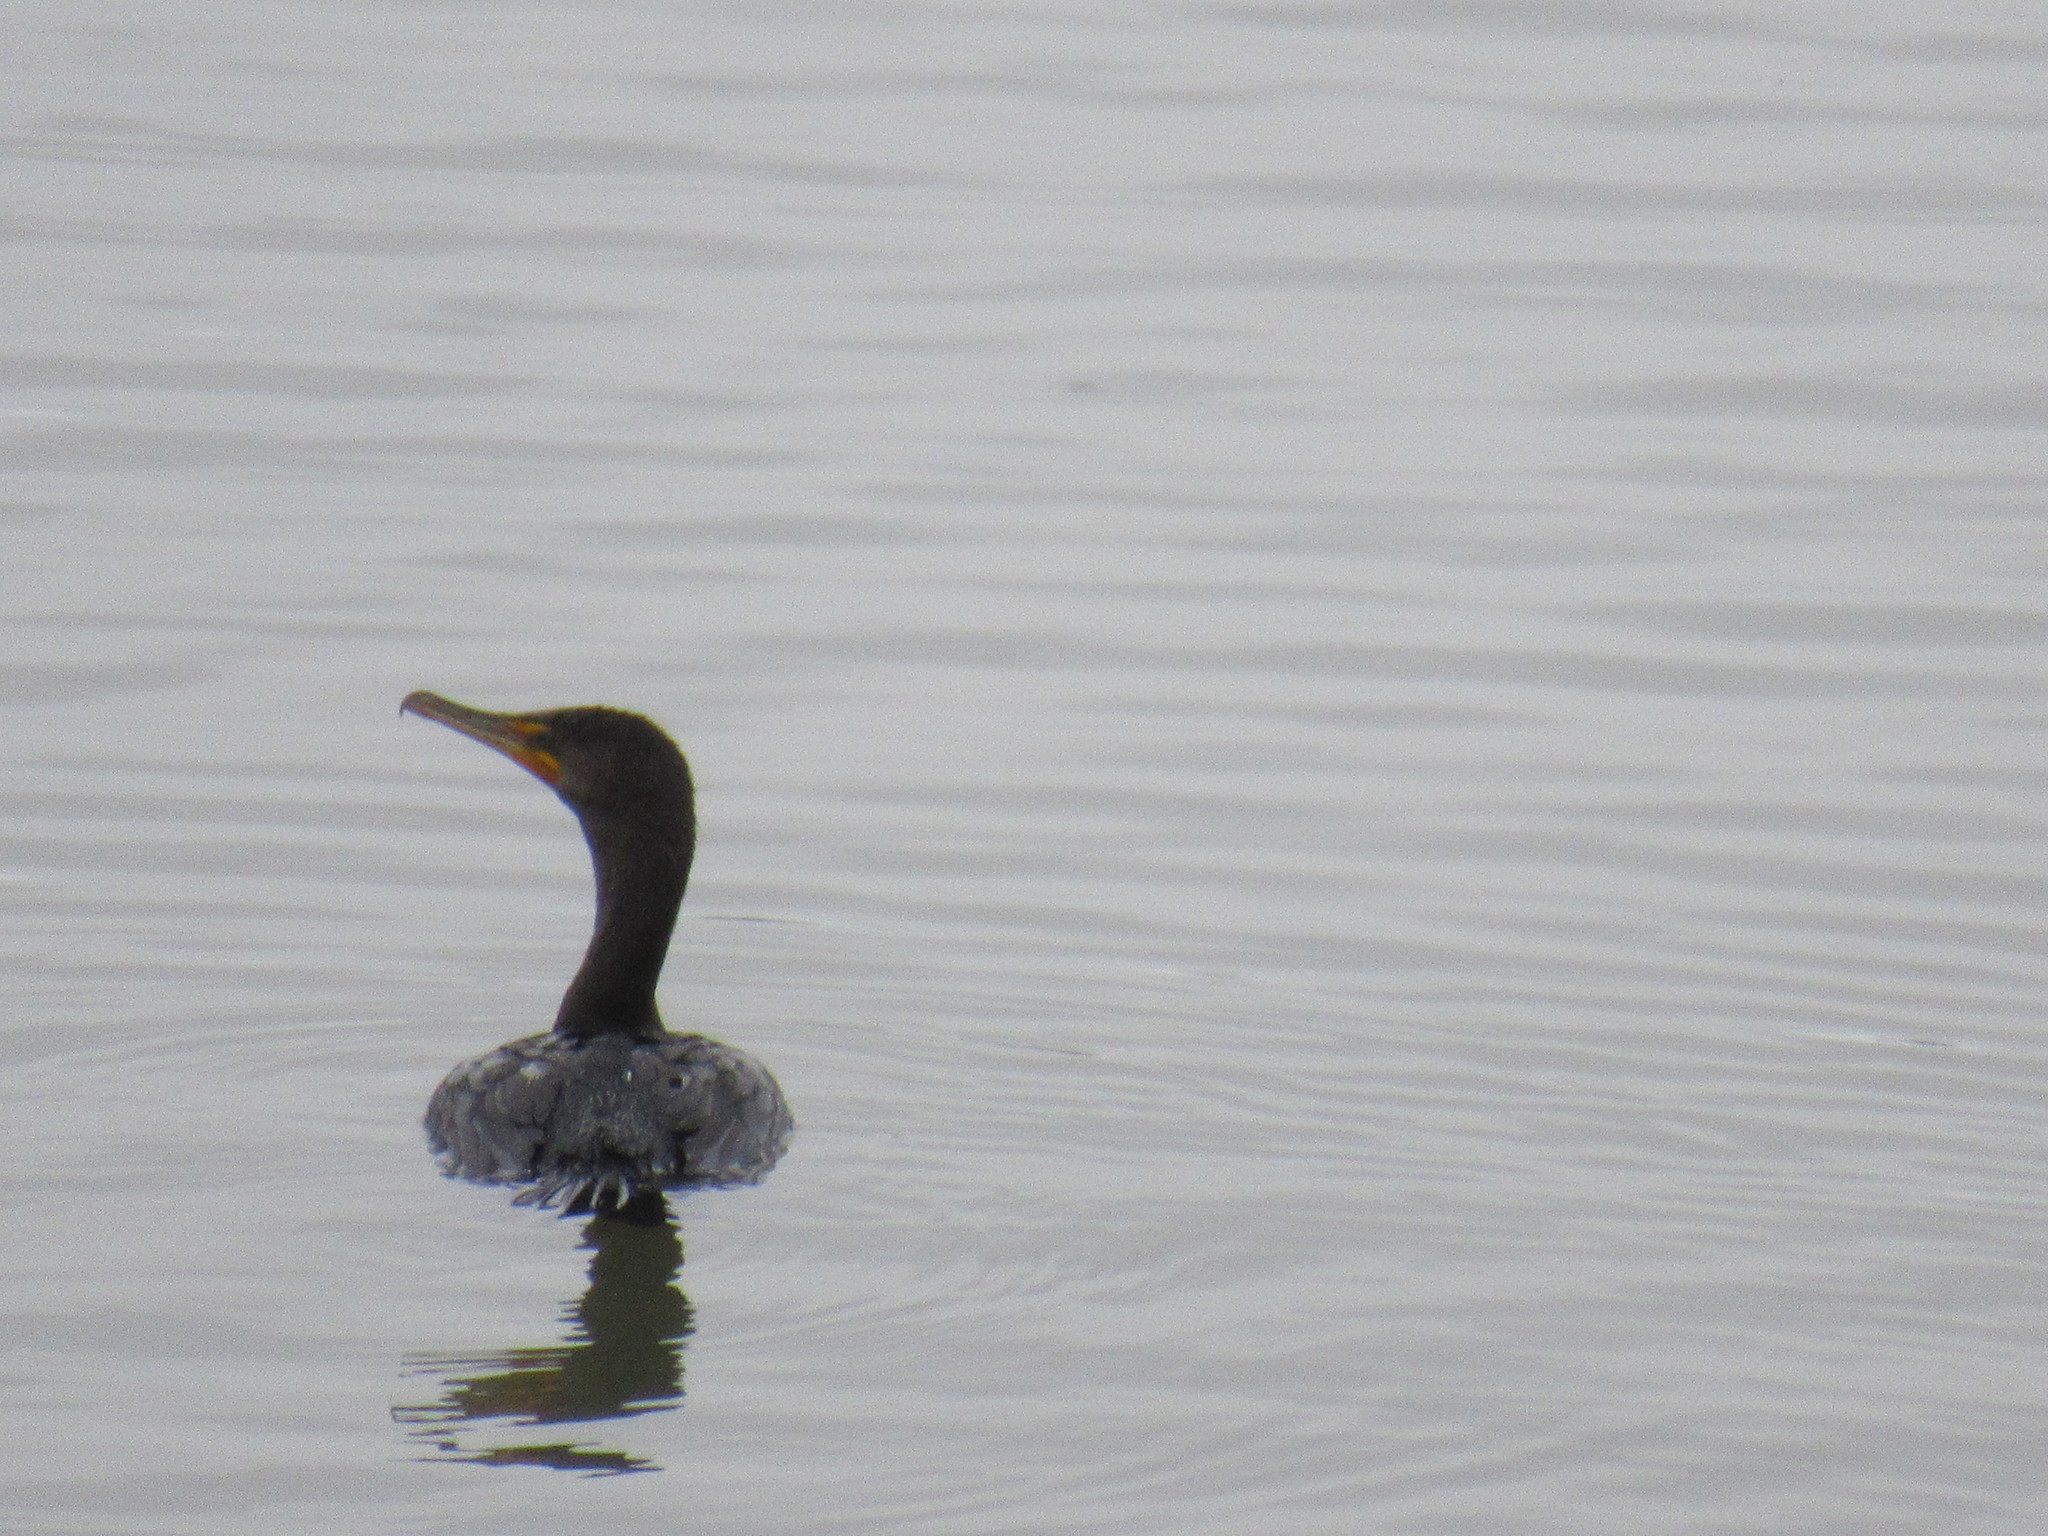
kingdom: Animalia
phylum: Chordata
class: Aves
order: Suliformes
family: Phalacrocoracidae
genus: Phalacrocorax
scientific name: Phalacrocorax auritus
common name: Double-crested cormorant
